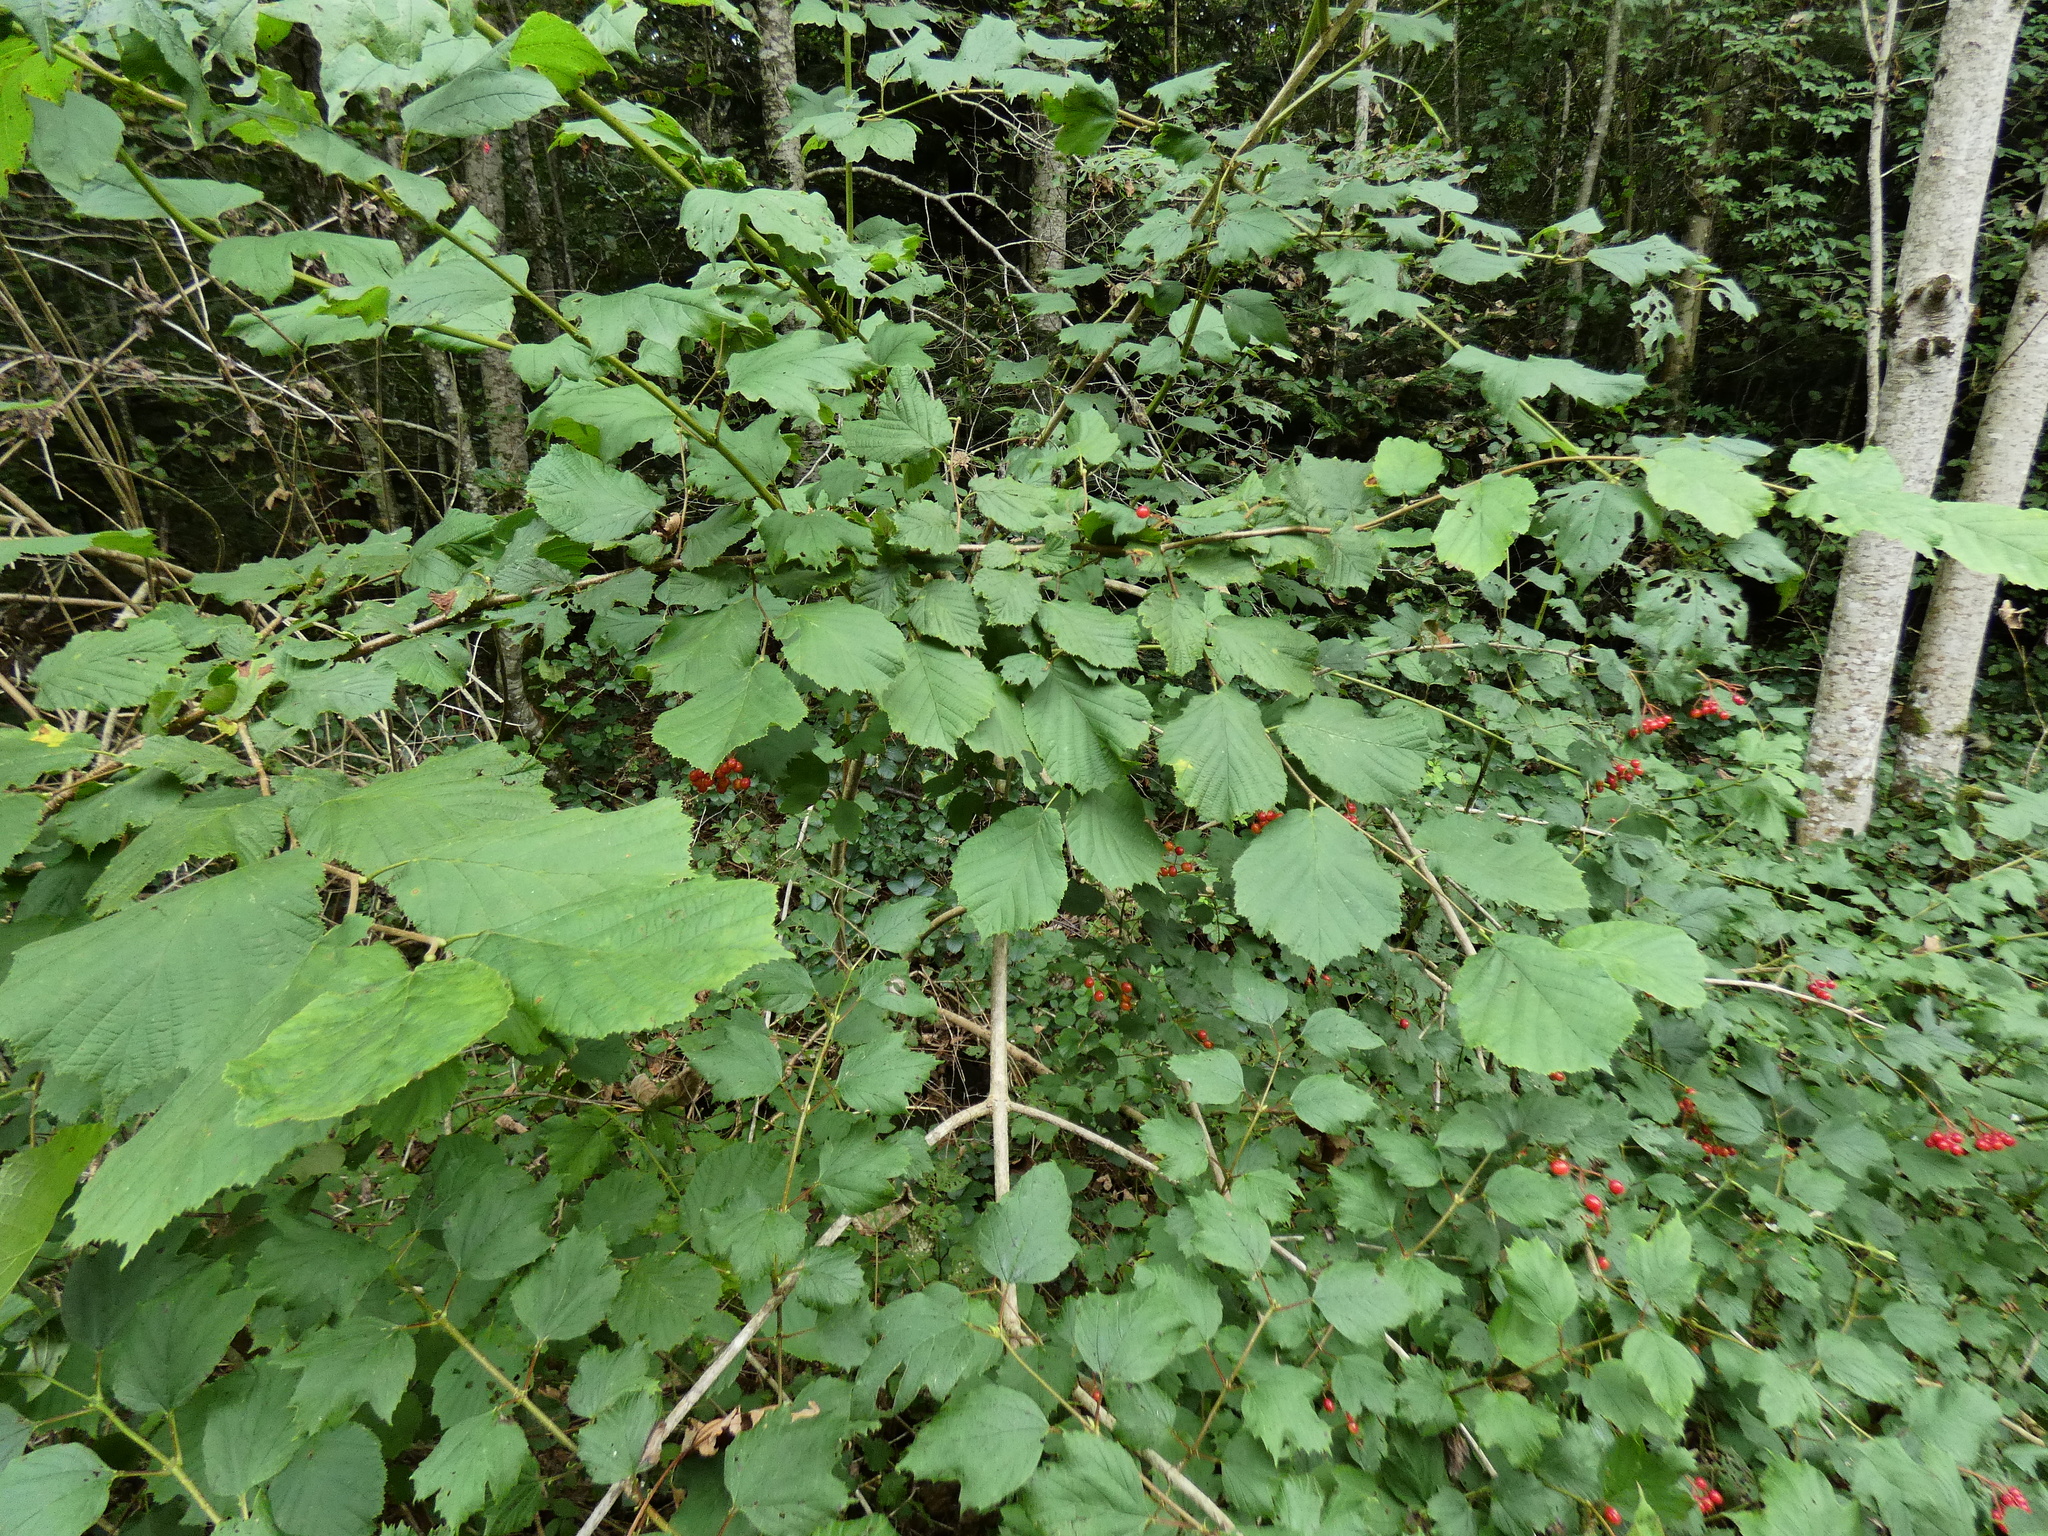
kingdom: Plantae
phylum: Tracheophyta
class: Magnoliopsida
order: Fagales
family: Betulaceae
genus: Corylus
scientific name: Corylus avellana
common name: European hazel
